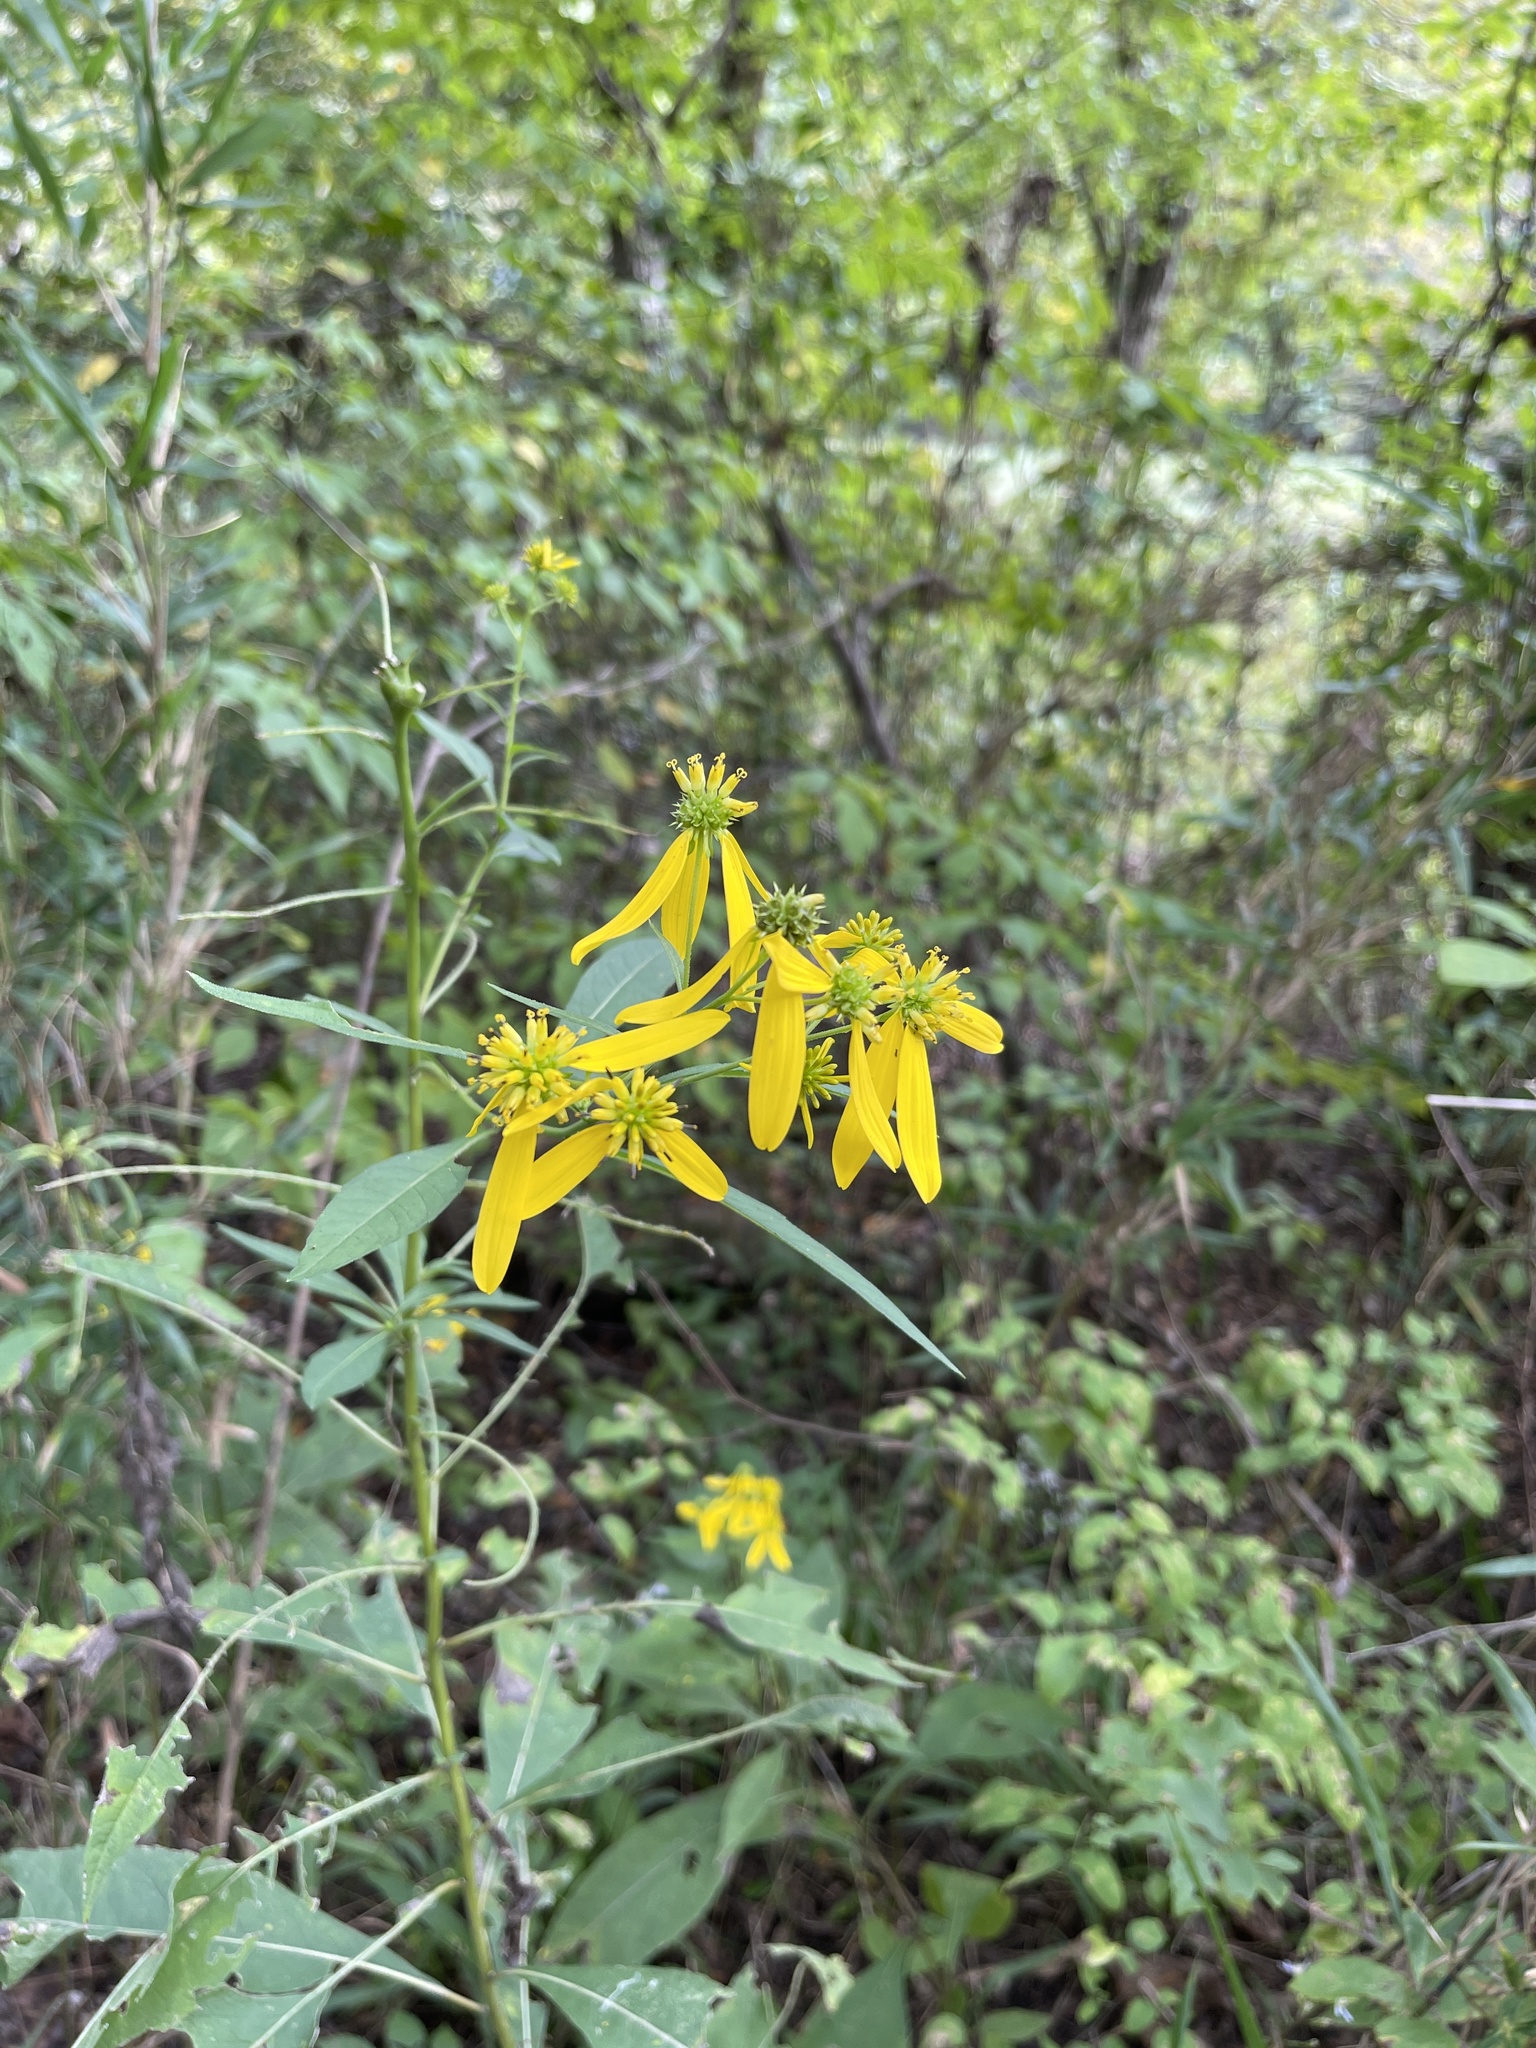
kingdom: Plantae
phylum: Tracheophyta
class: Magnoliopsida
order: Asterales
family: Asteraceae
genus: Verbesina
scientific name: Verbesina alternifolia
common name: Wingstem
